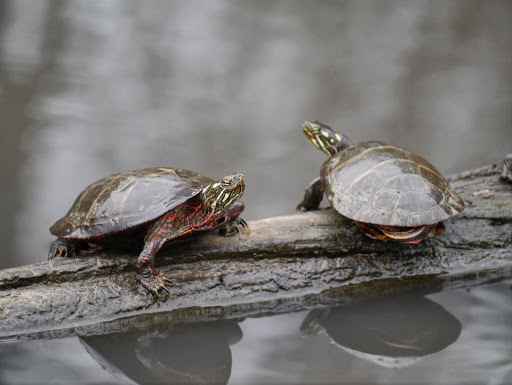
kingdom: Animalia
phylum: Chordata
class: Testudines
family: Emydidae
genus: Chrysemys
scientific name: Chrysemys picta
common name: Painted turtle
